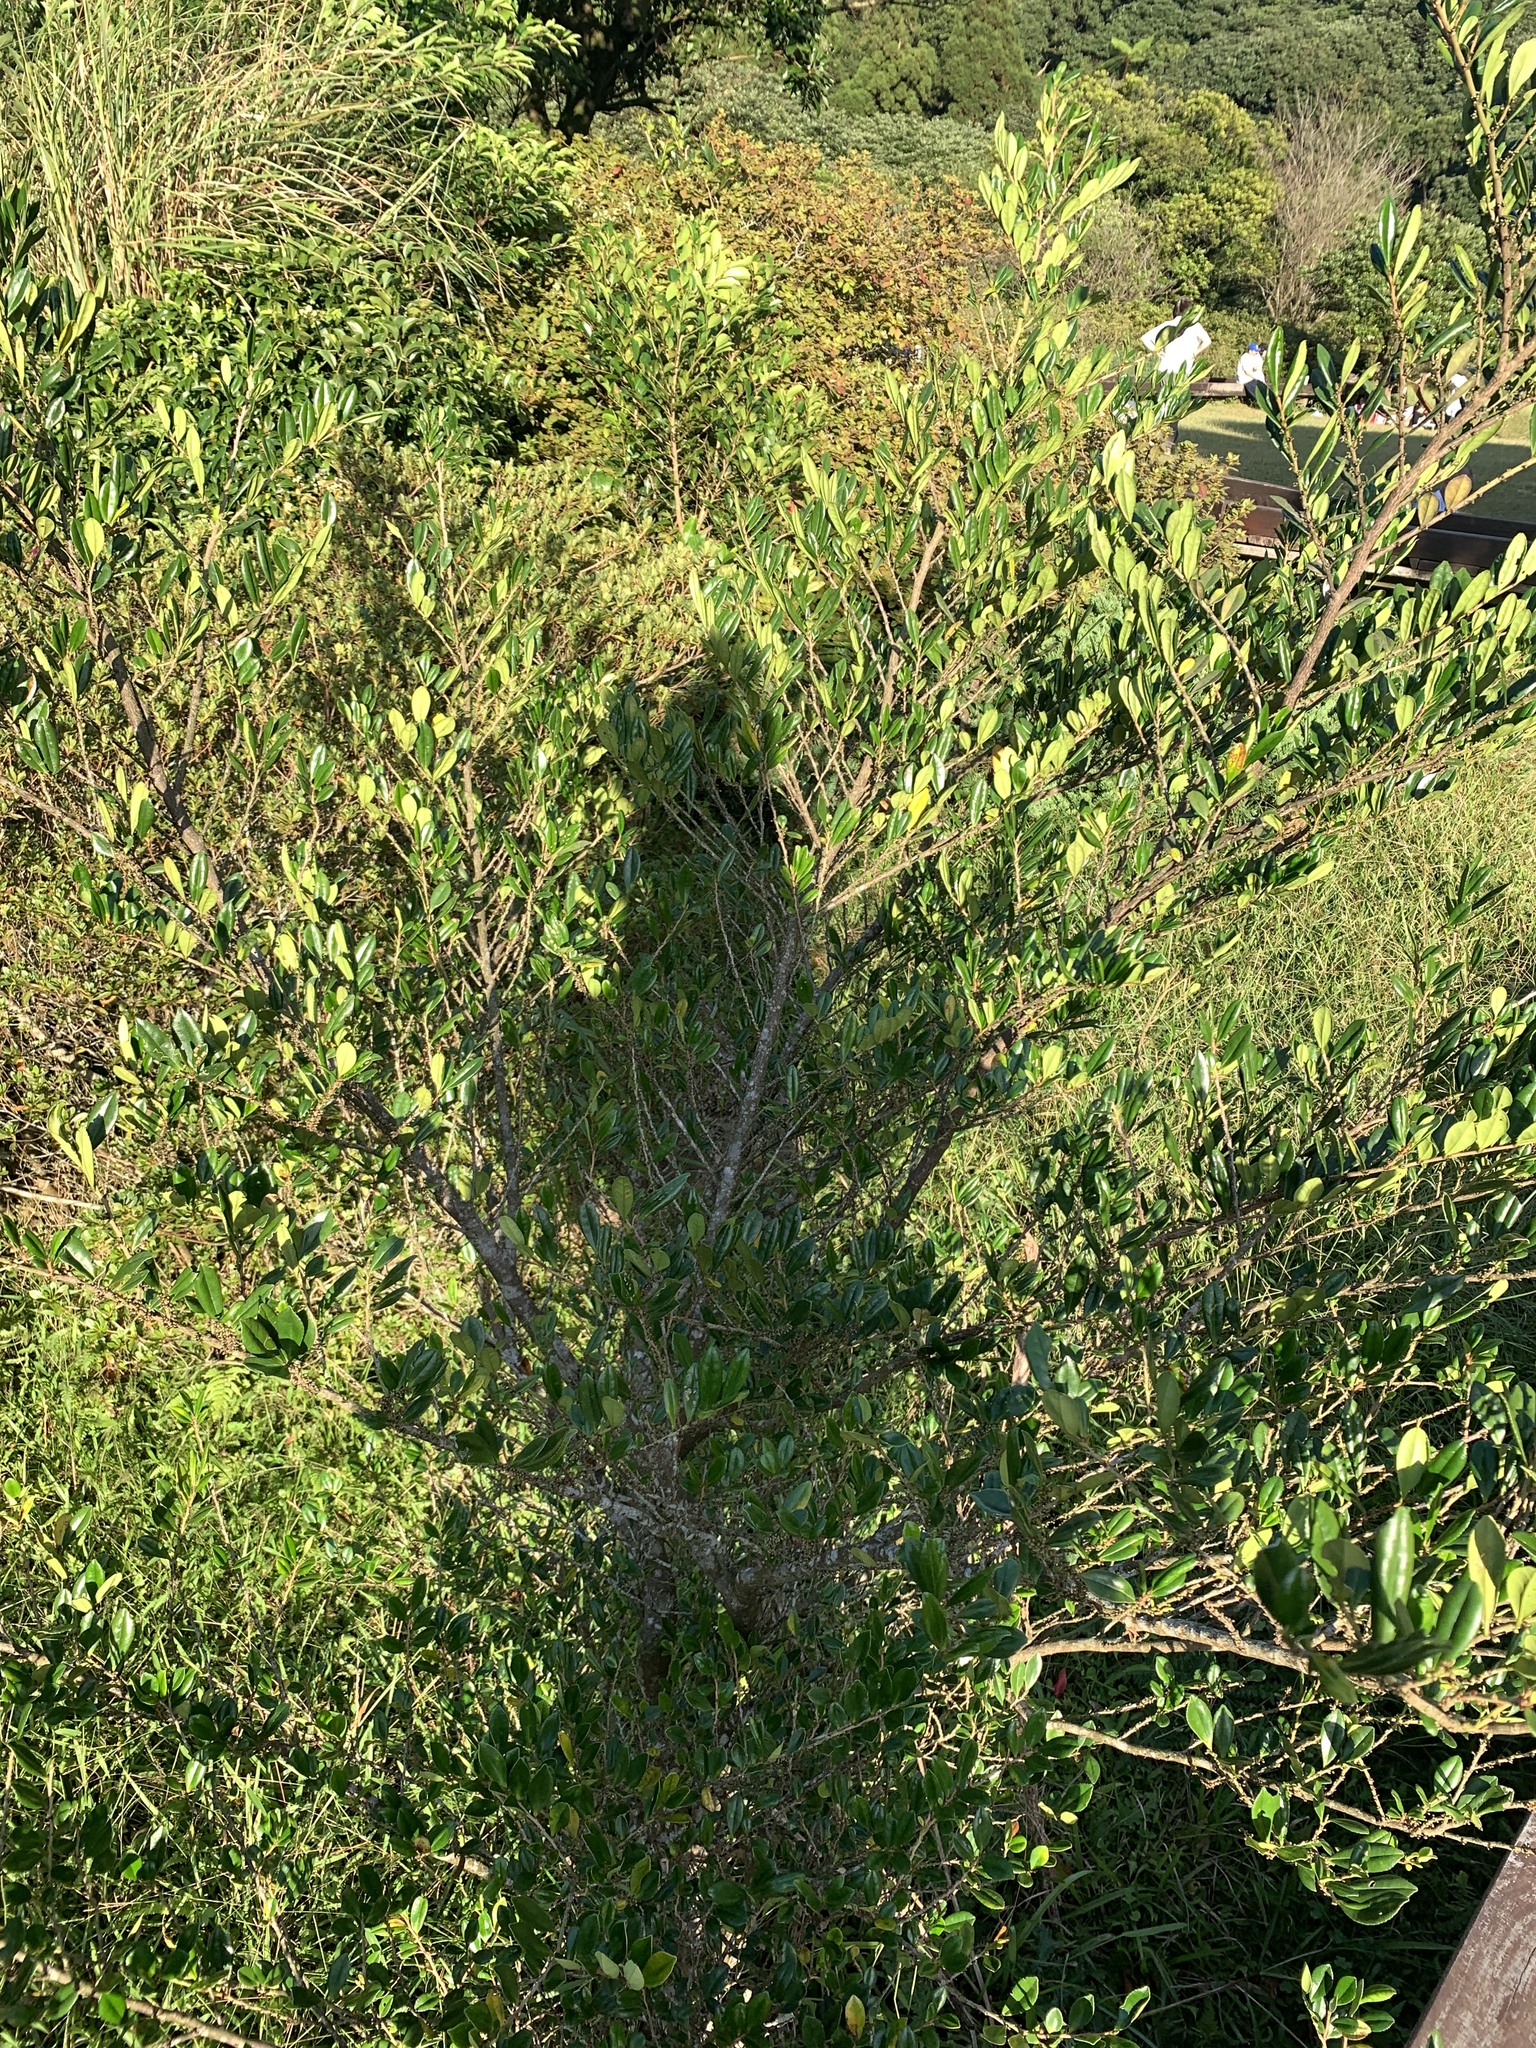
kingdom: Plantae
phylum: Tracheophyta
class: Magnoliopsida
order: Ericales
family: Pentaphylacaceae
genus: Eurya
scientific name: Eurya emarginata
